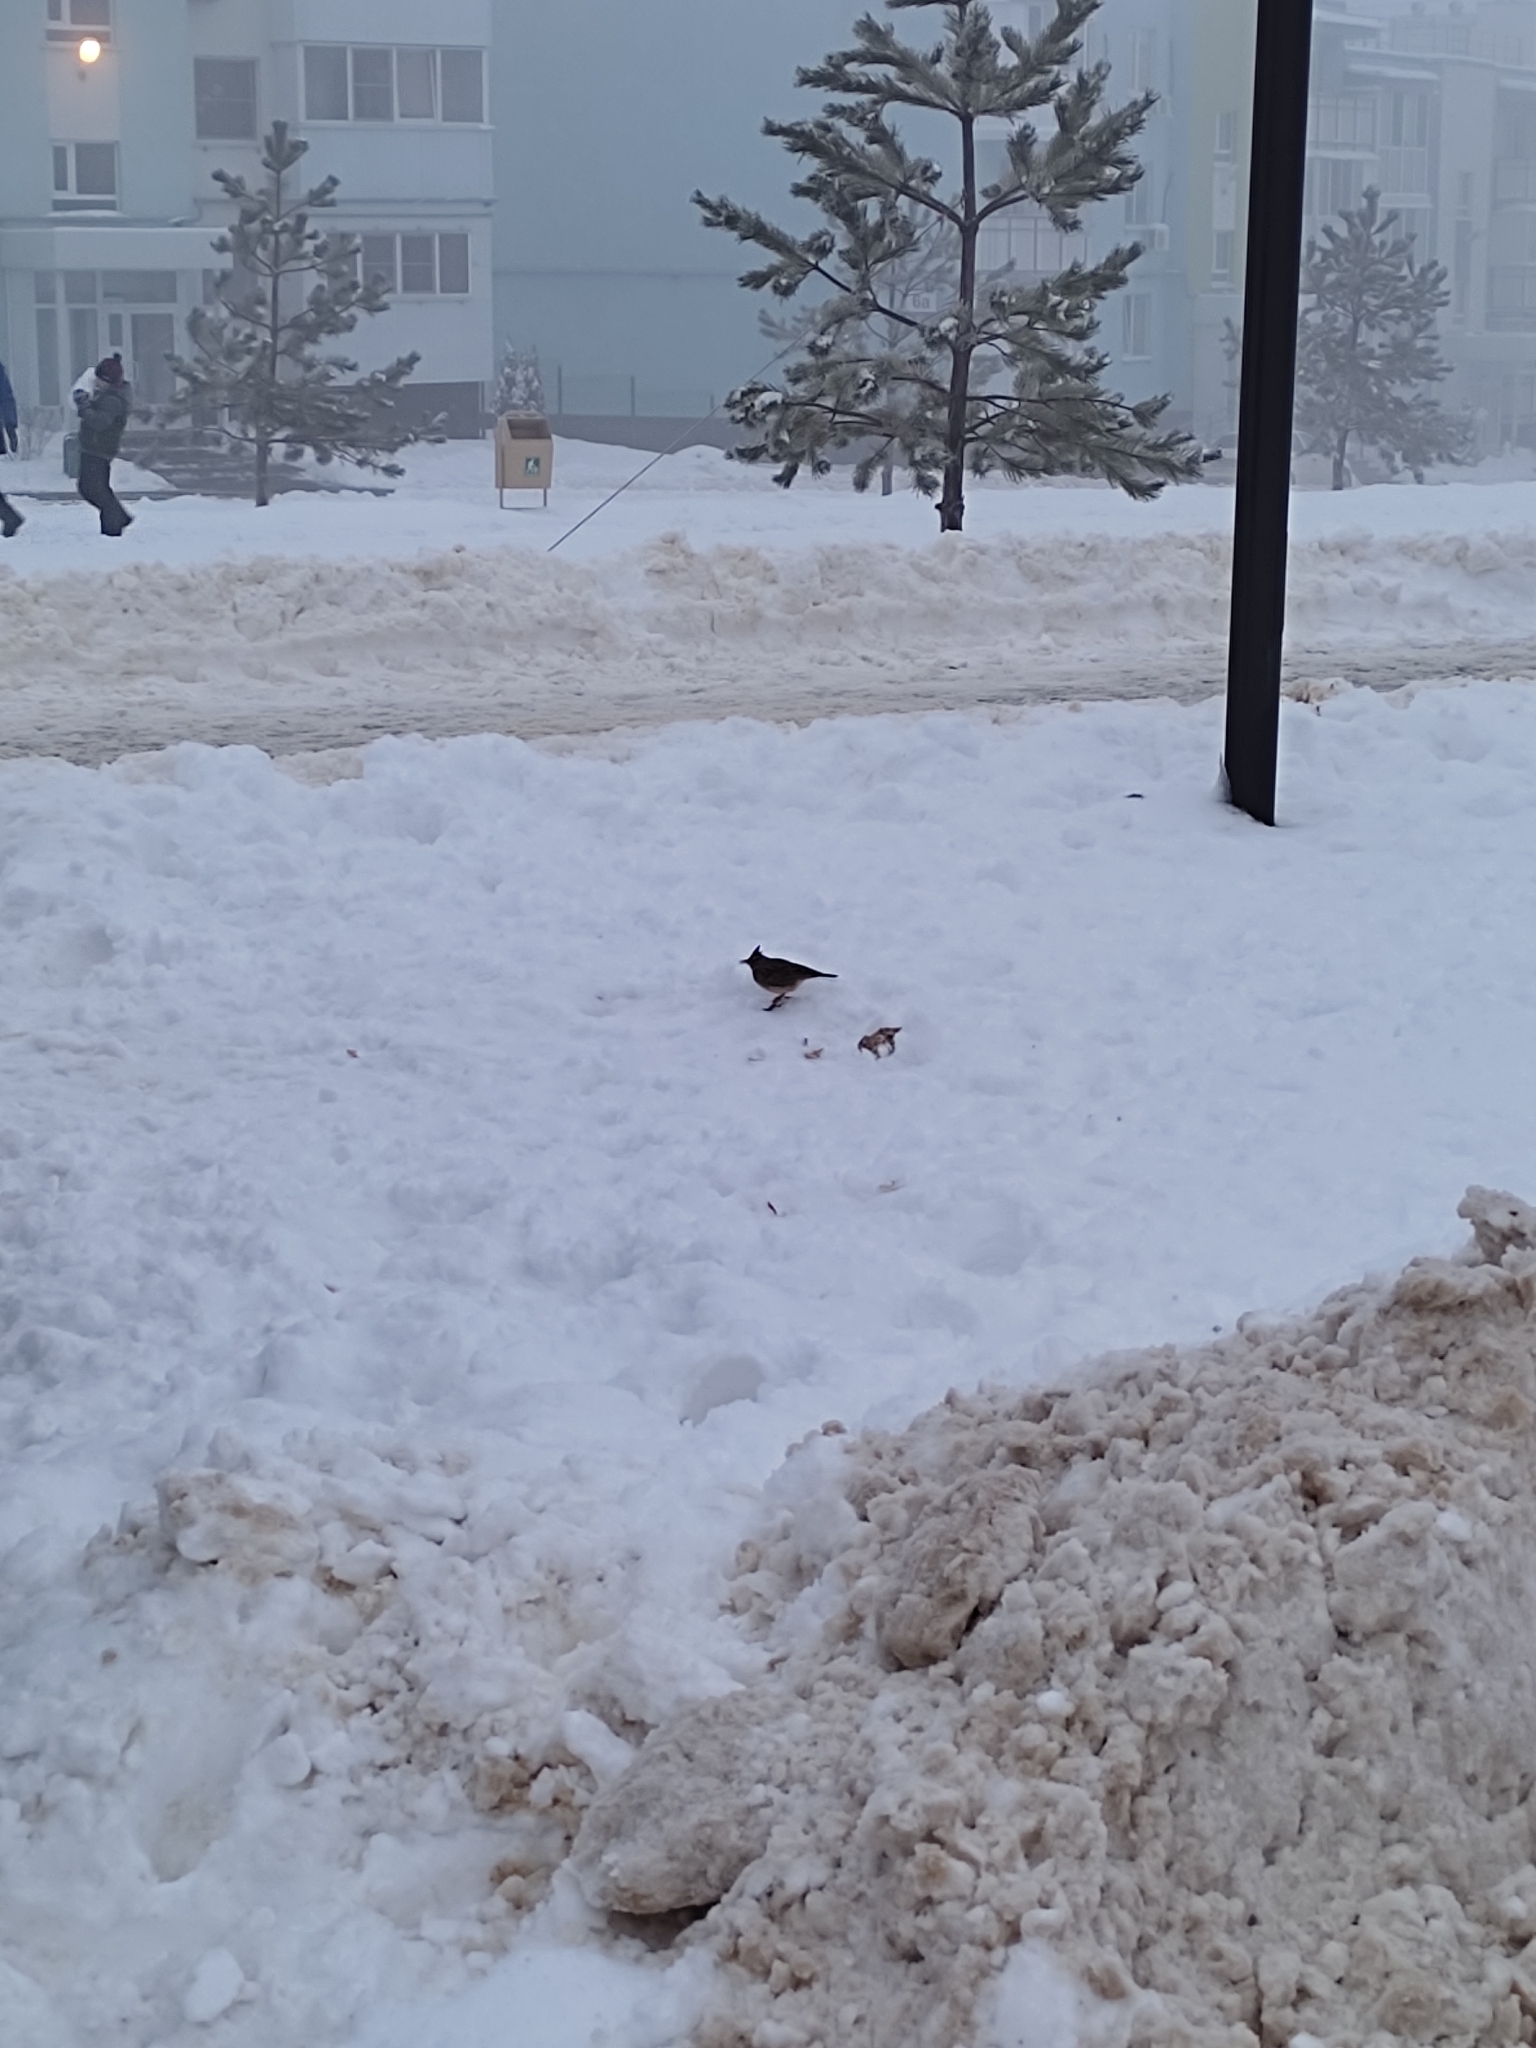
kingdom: Animalia
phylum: Chordata
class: Aves
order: Passeriformes
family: Alaudidae
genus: Galerida
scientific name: Galerida cristata
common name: Crested lark
